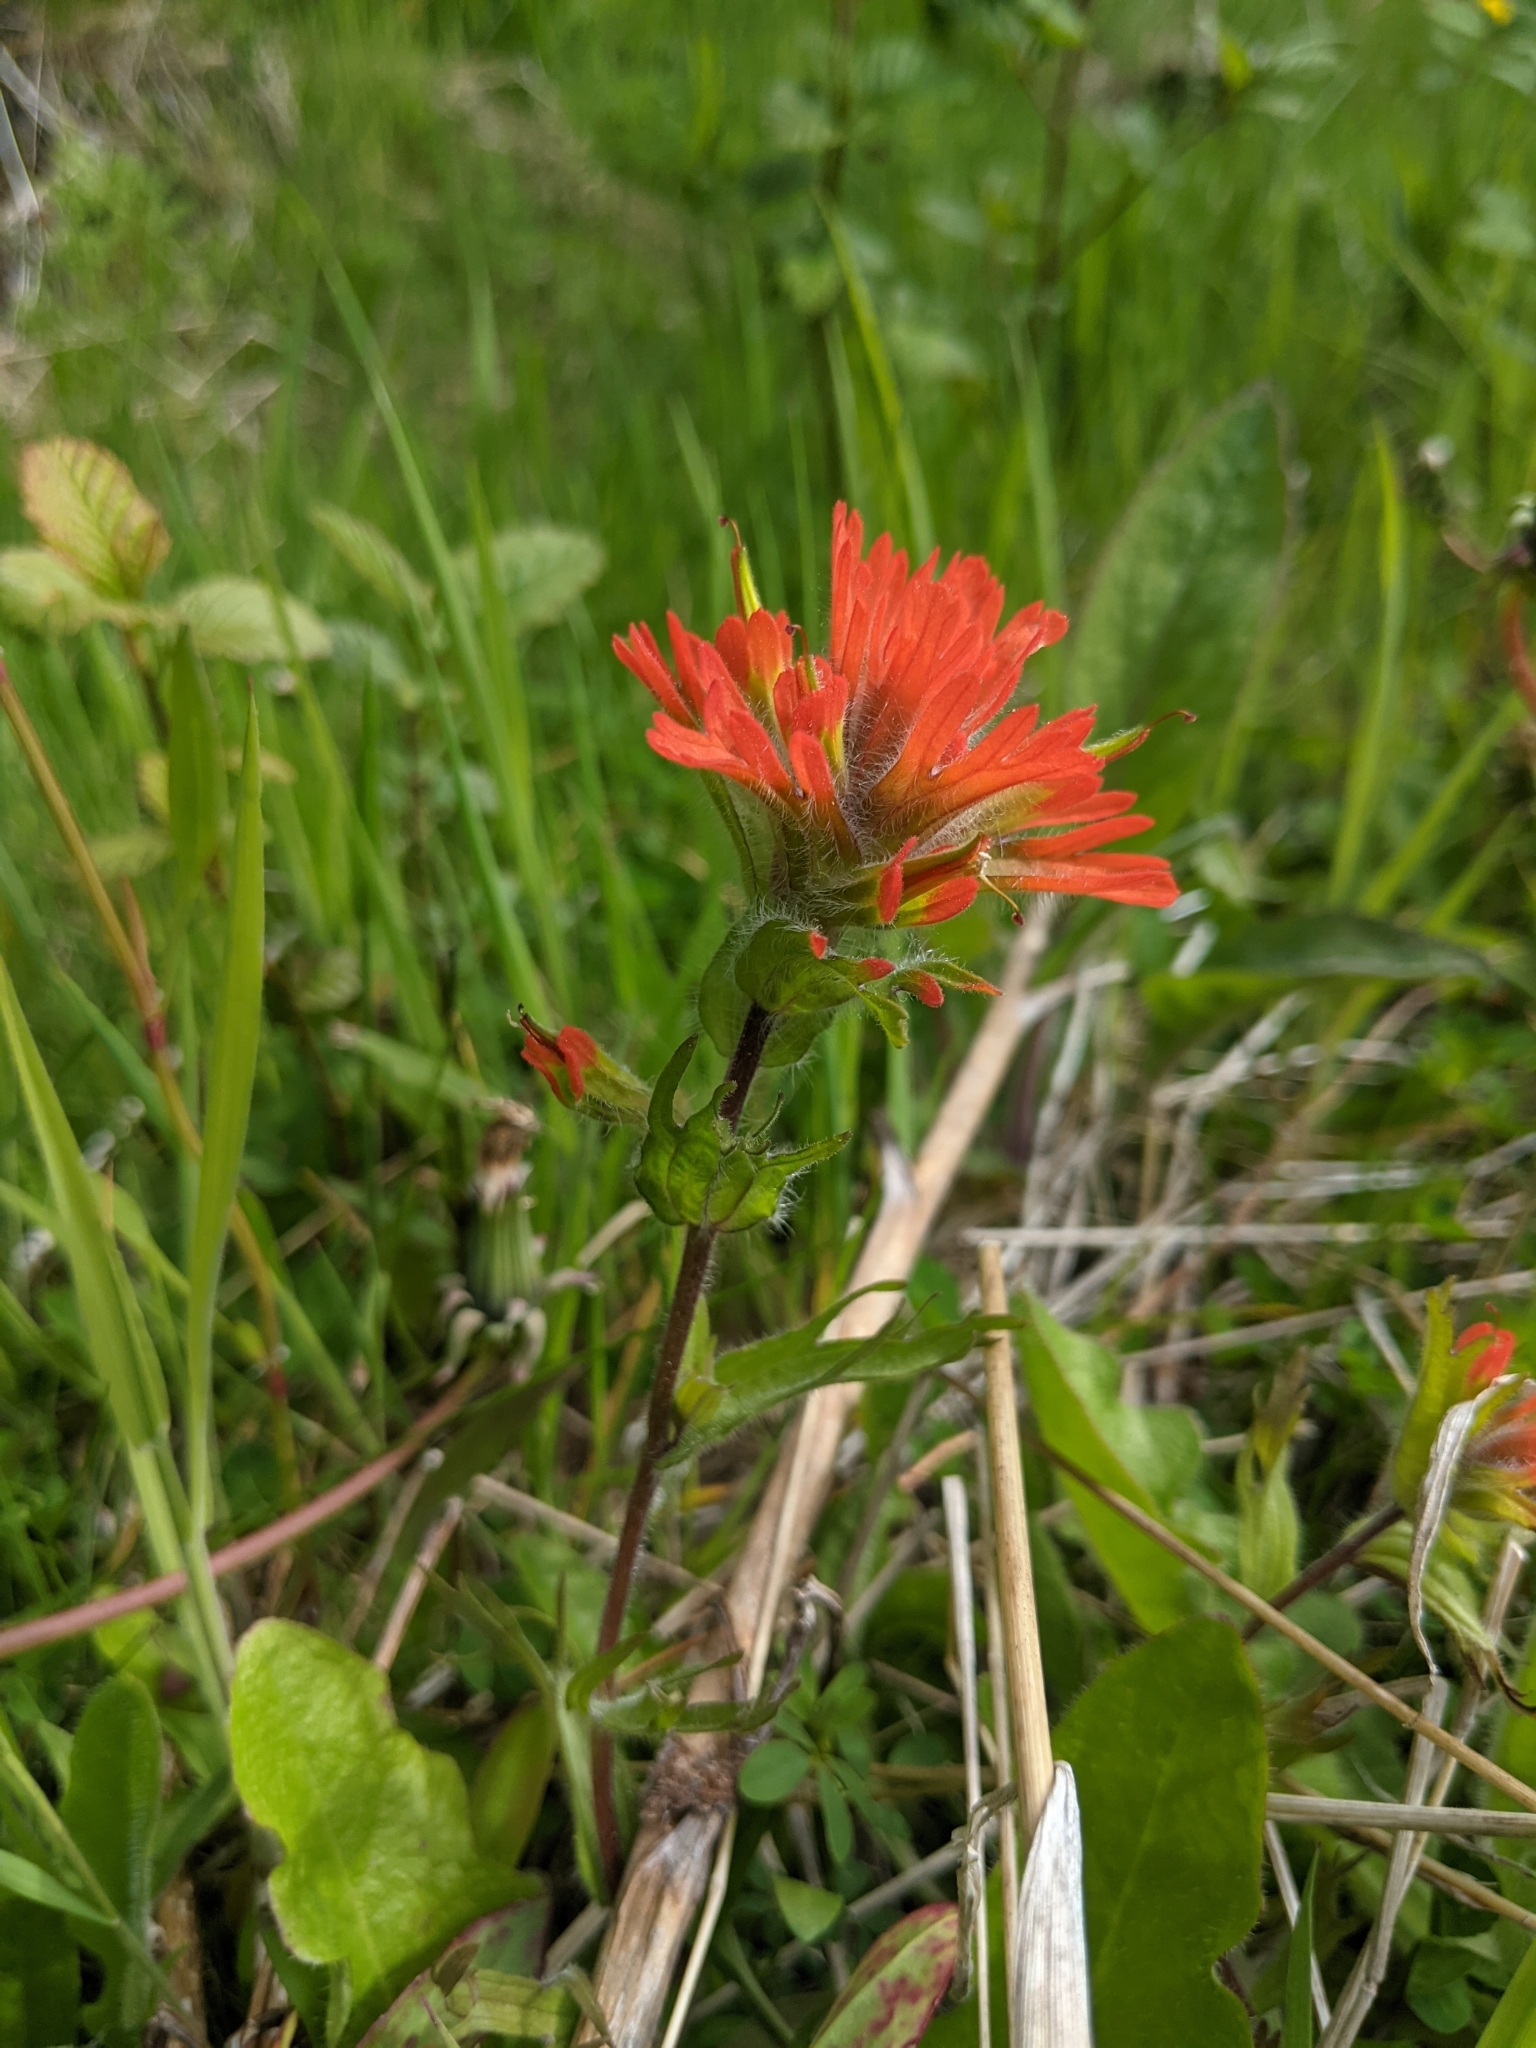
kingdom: Plantae
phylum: Tracheophyta
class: Magnoliopsida
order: Lamiales
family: Orobanchaceae
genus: Castilleja
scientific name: Castilleja hispida
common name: Bristly paintbrush
